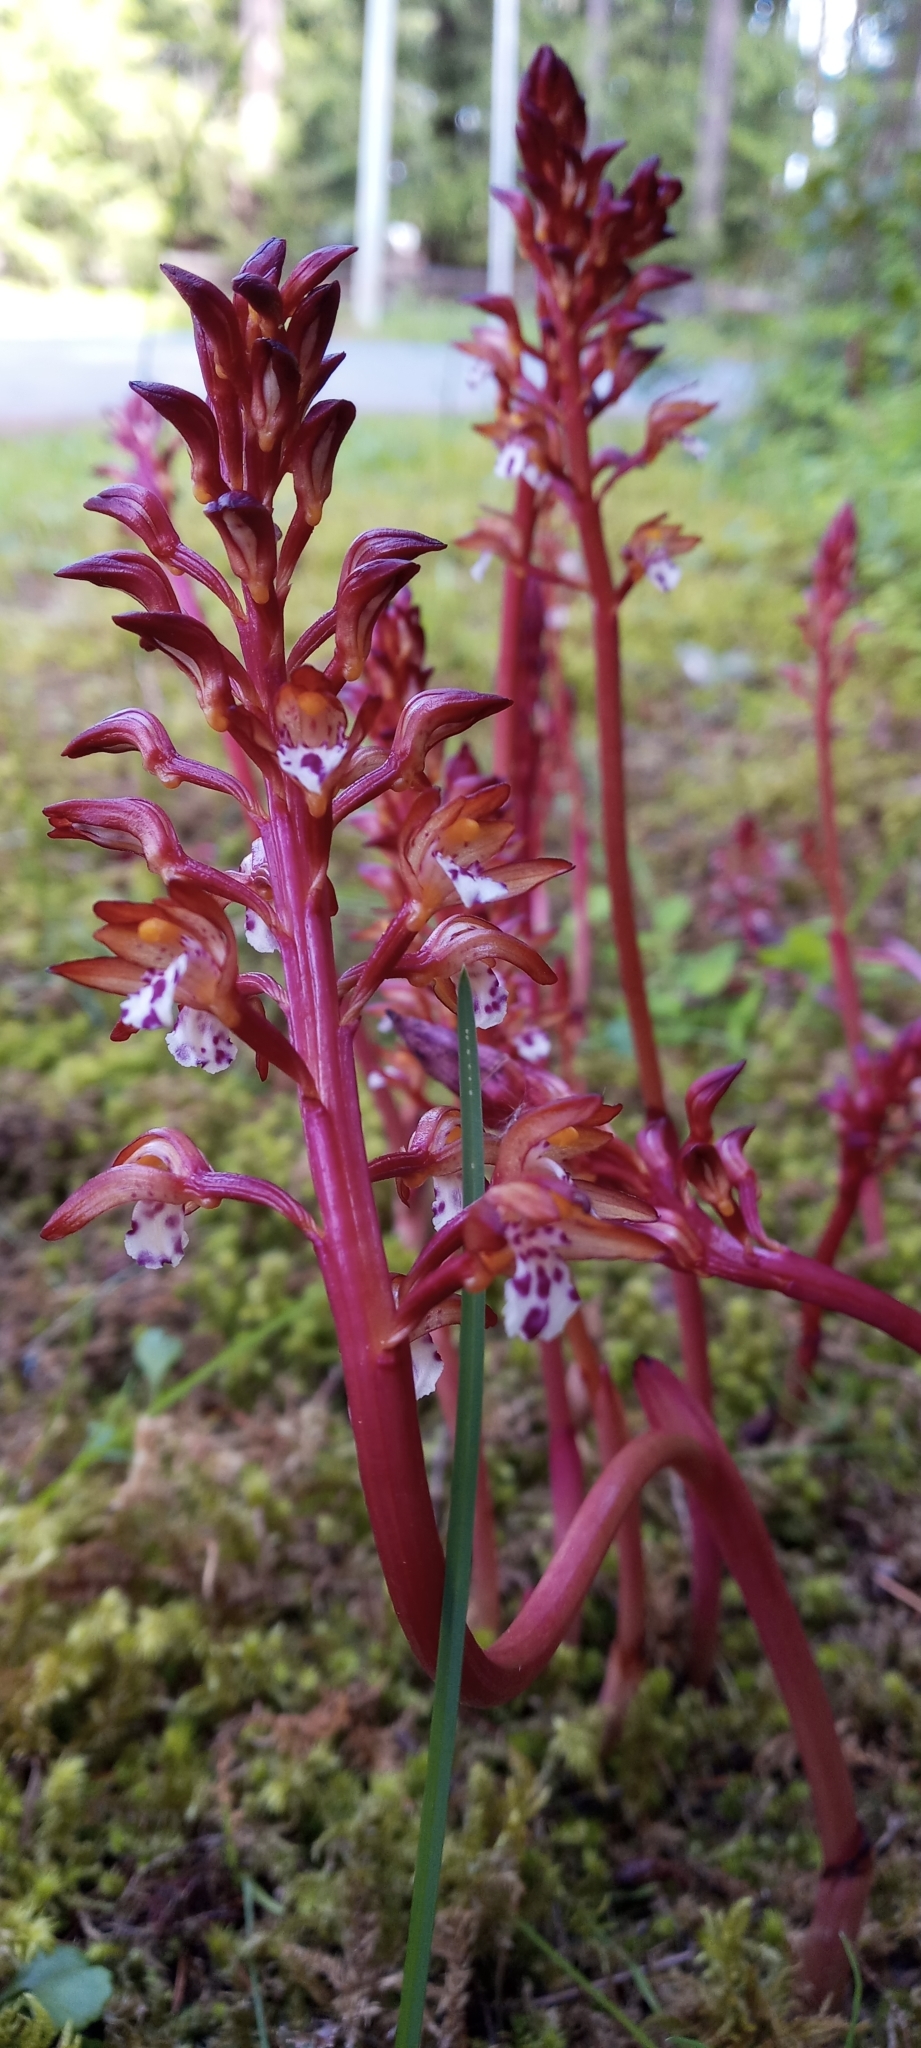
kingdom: Plantae
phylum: Tracheophyta
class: Liliopsida
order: Asparagales
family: Orchidaceae
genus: Corallorhiza
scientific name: Corallorhiza maculata
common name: Spotted coralroot
